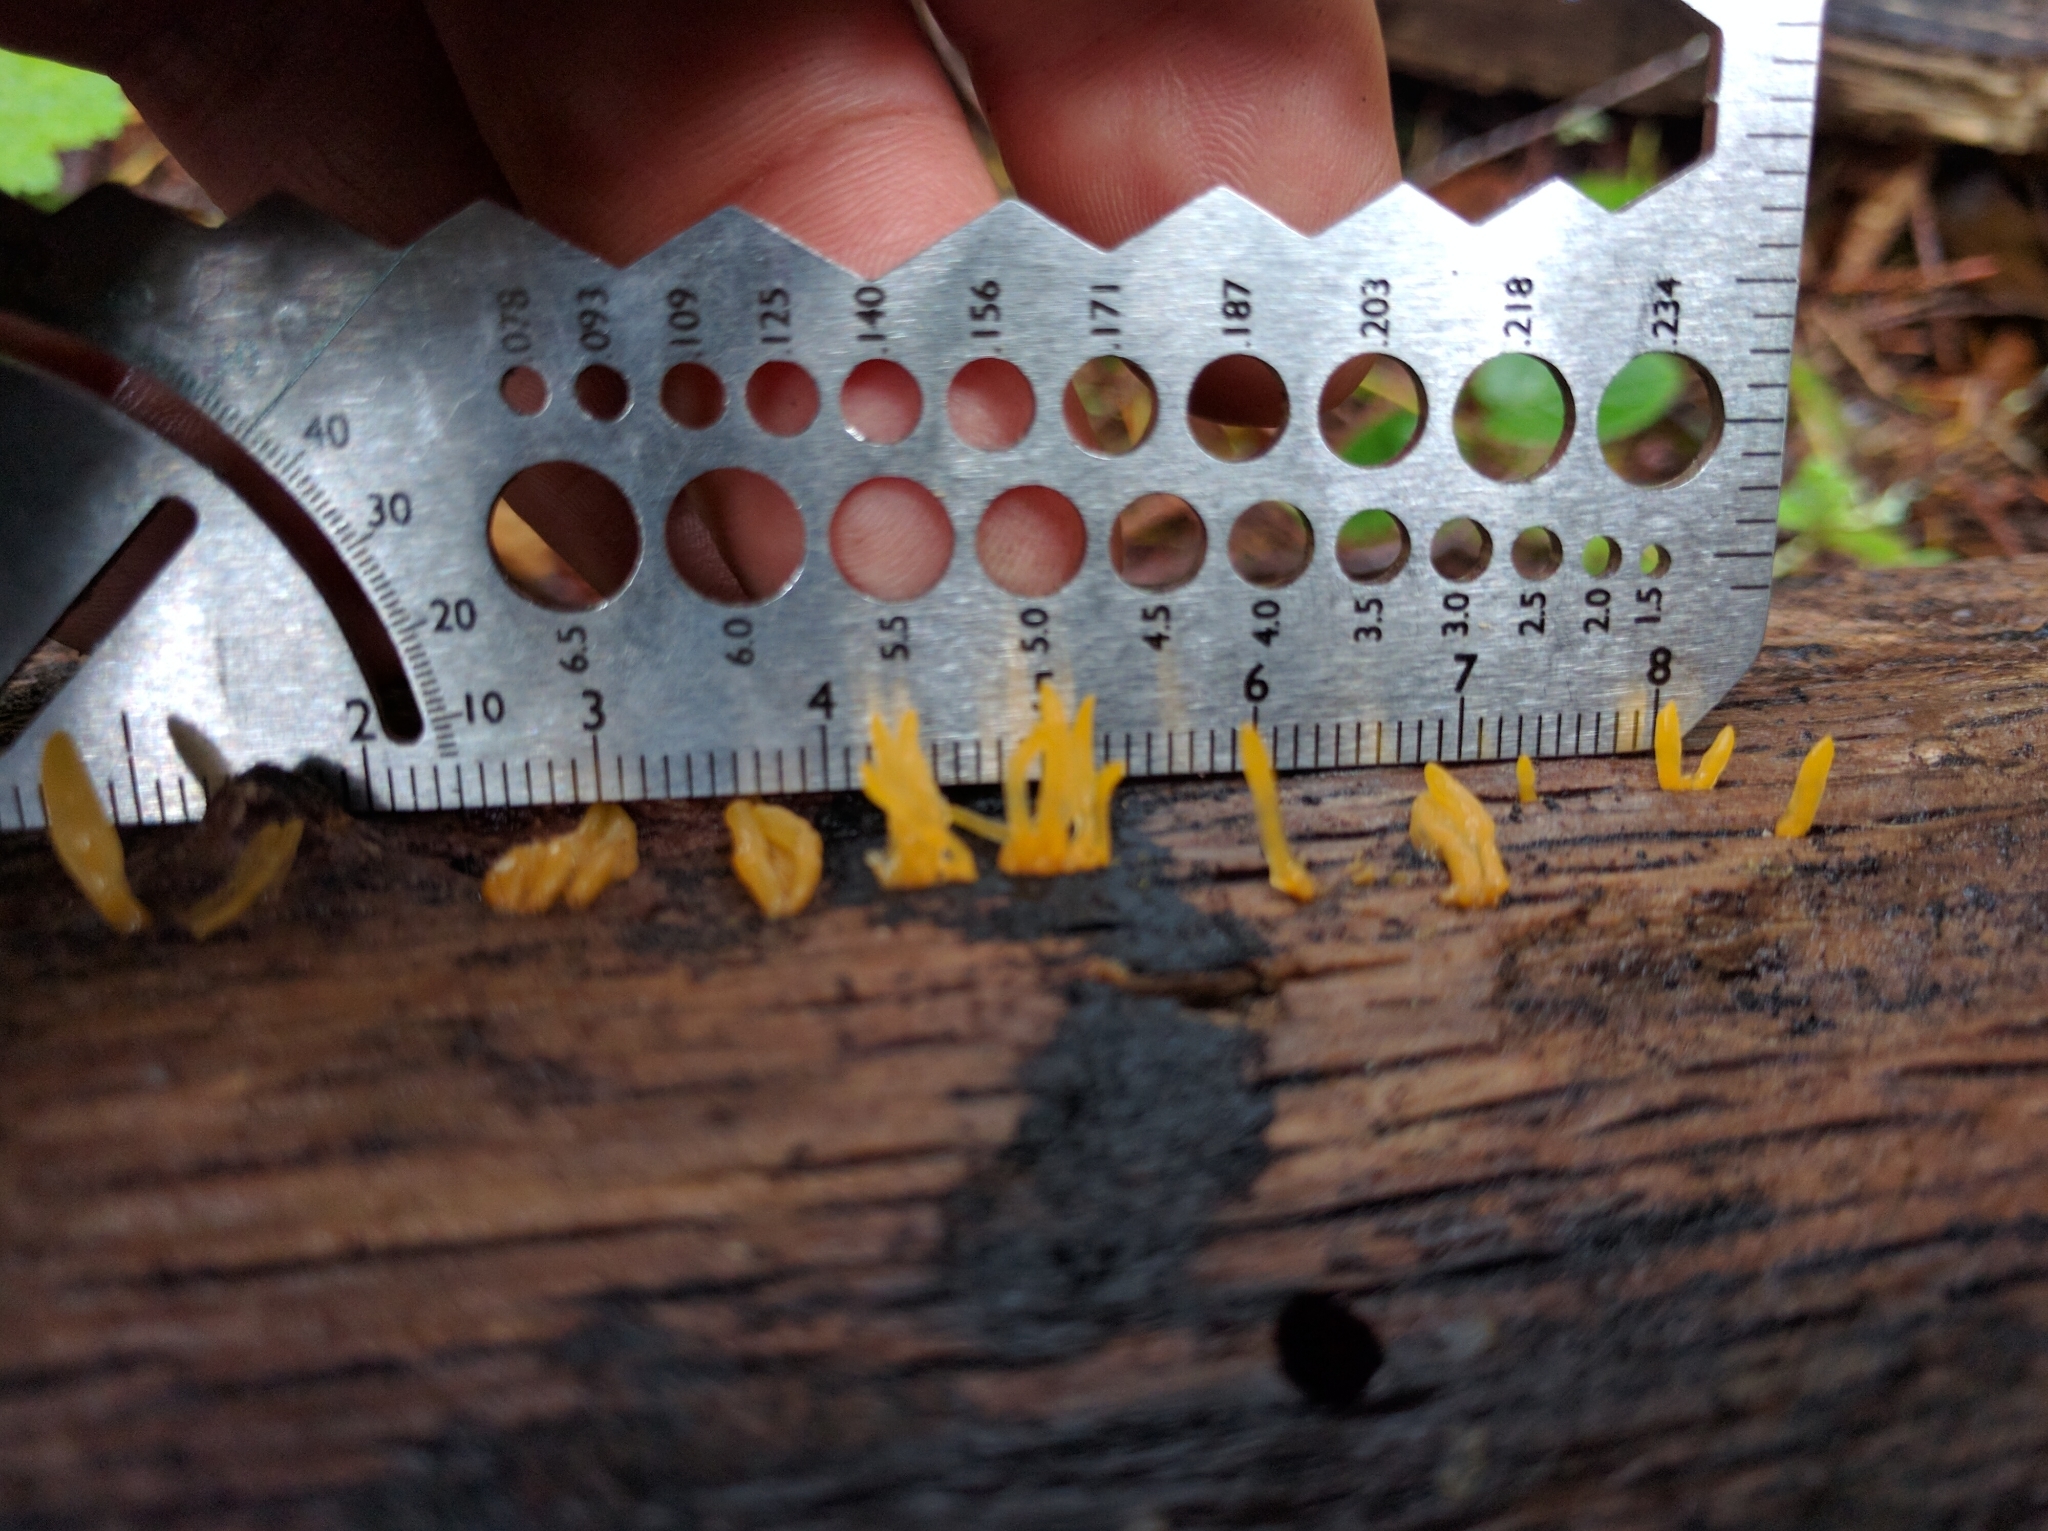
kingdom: Fungi
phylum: Basidiomycota
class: Dacrymycetes
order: Dacrymycetales
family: Dacrymycetaceae
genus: Calocera
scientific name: Calocera cornea
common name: Small stagshorn
